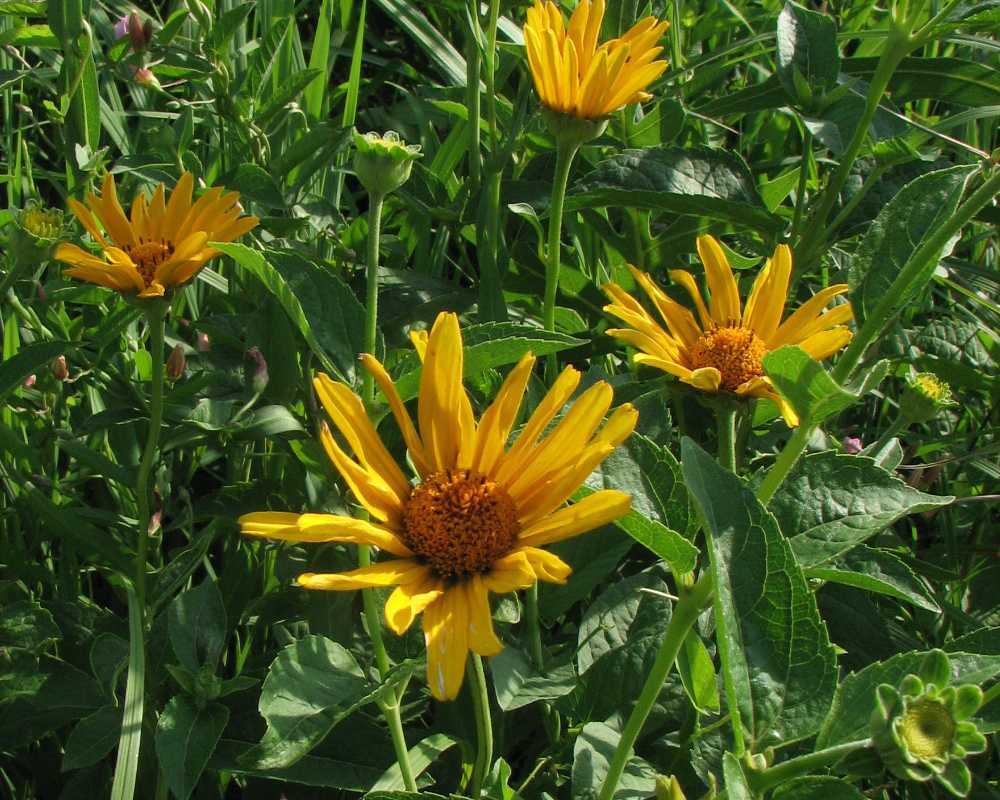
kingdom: Plantae
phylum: Tracheophyta
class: Magnoliopsida
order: Asterales
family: Asteraceae
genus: Heliopsis
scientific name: Heliopsis helianthoides
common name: False sunflower
